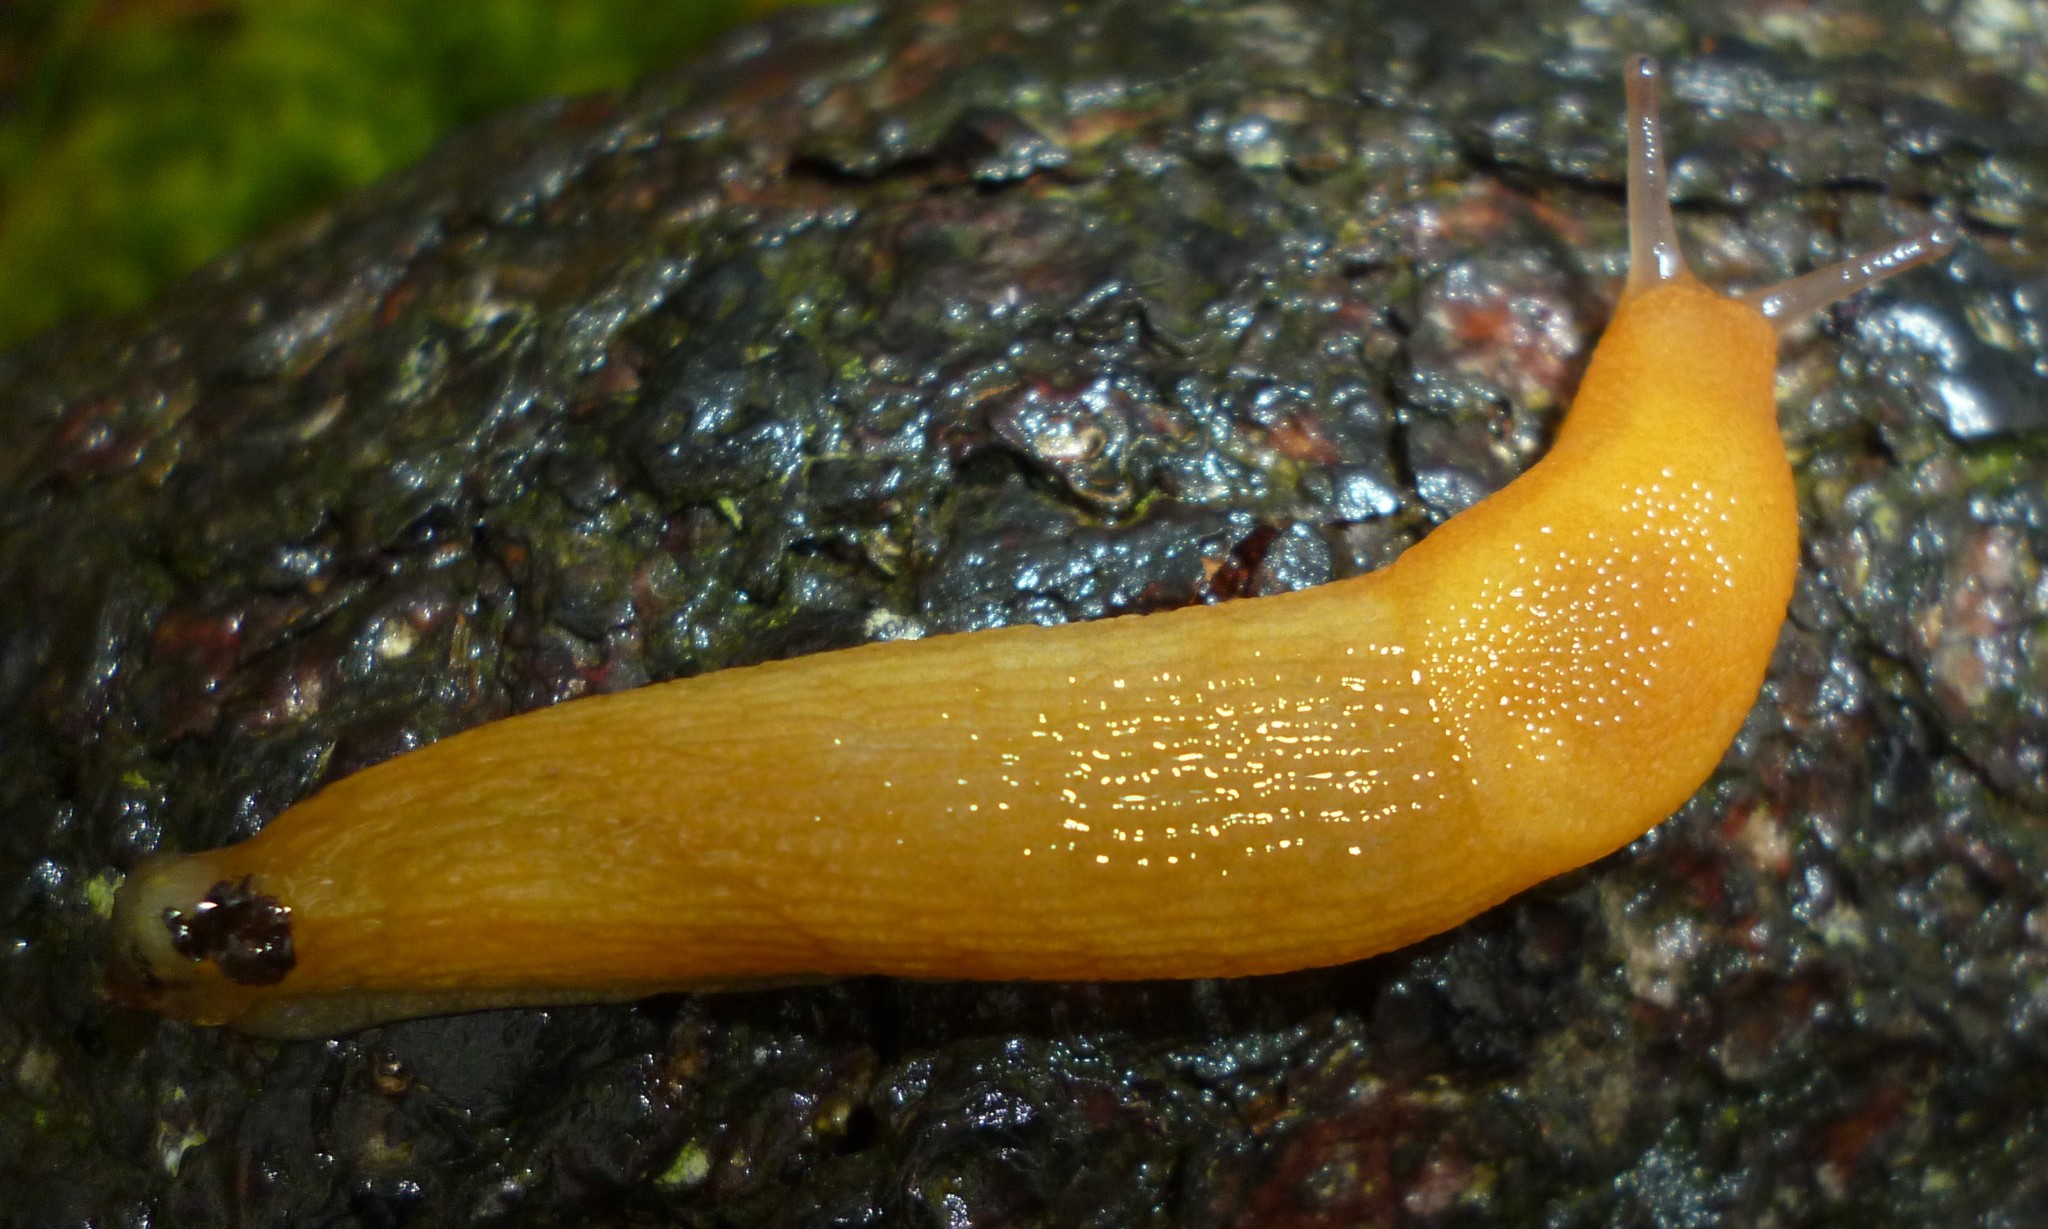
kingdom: Animalia
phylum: Mollusca
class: Gastropoda
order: Stylommatophora
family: Arionidae
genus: Arion
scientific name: Arion subfuscus
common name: Dusky arion
